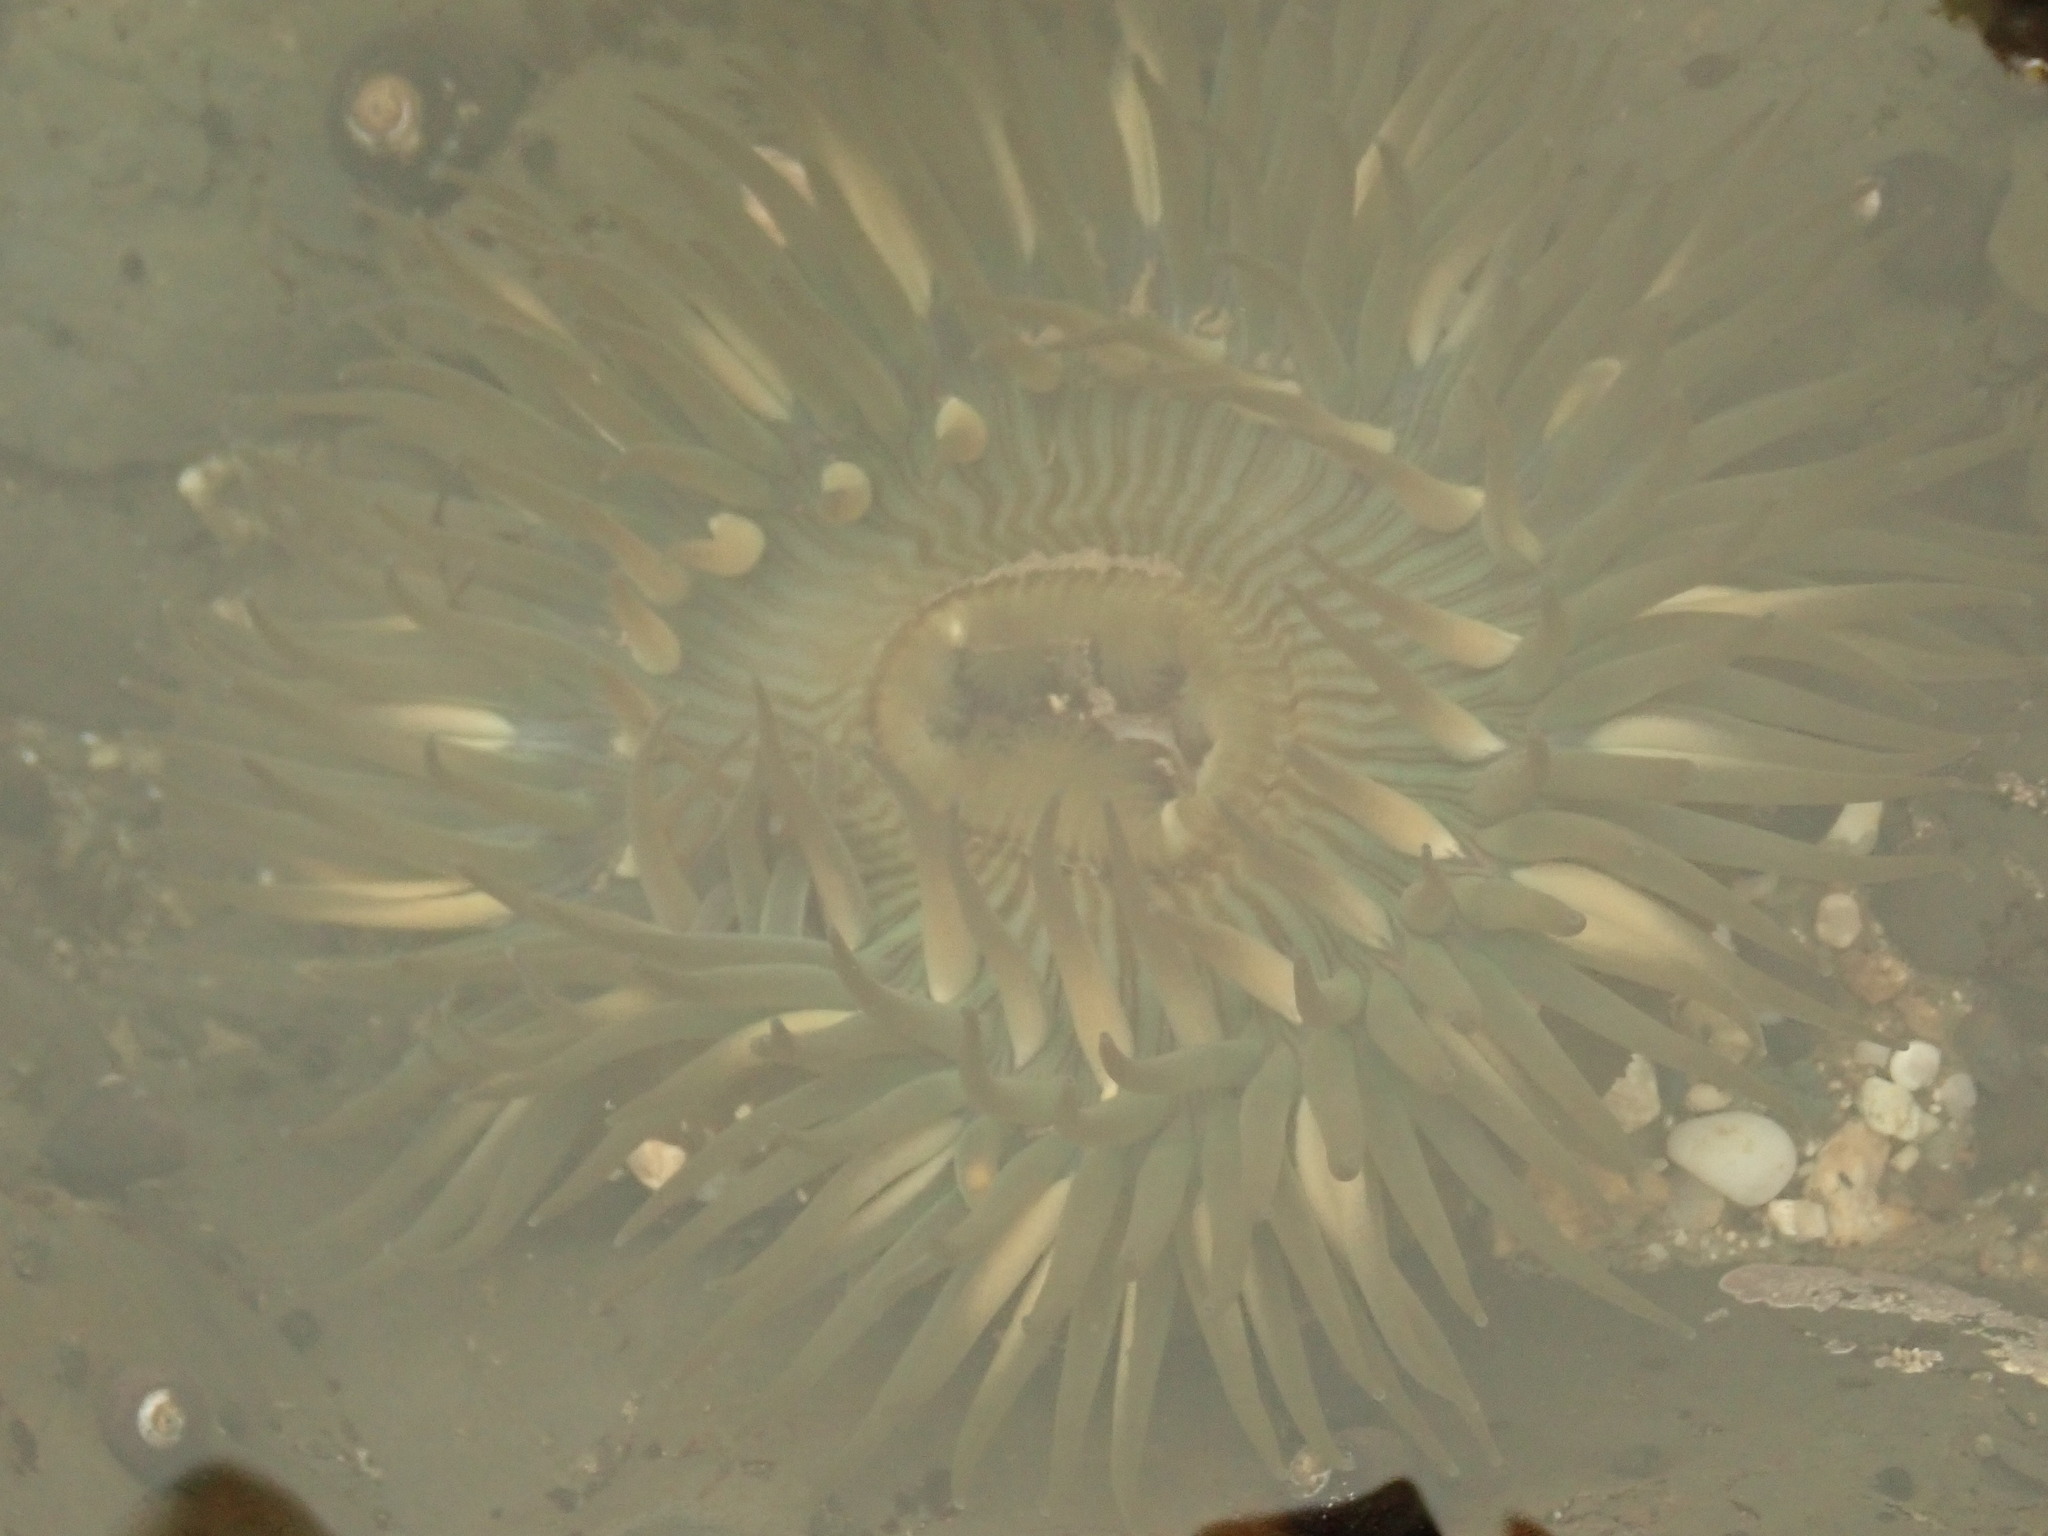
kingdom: Animalia
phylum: Cnidaria
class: Anthozoa
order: Actiniaria
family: Actiniidae
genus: Anthopleura
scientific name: Anthopleura sola
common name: Sun anemone
